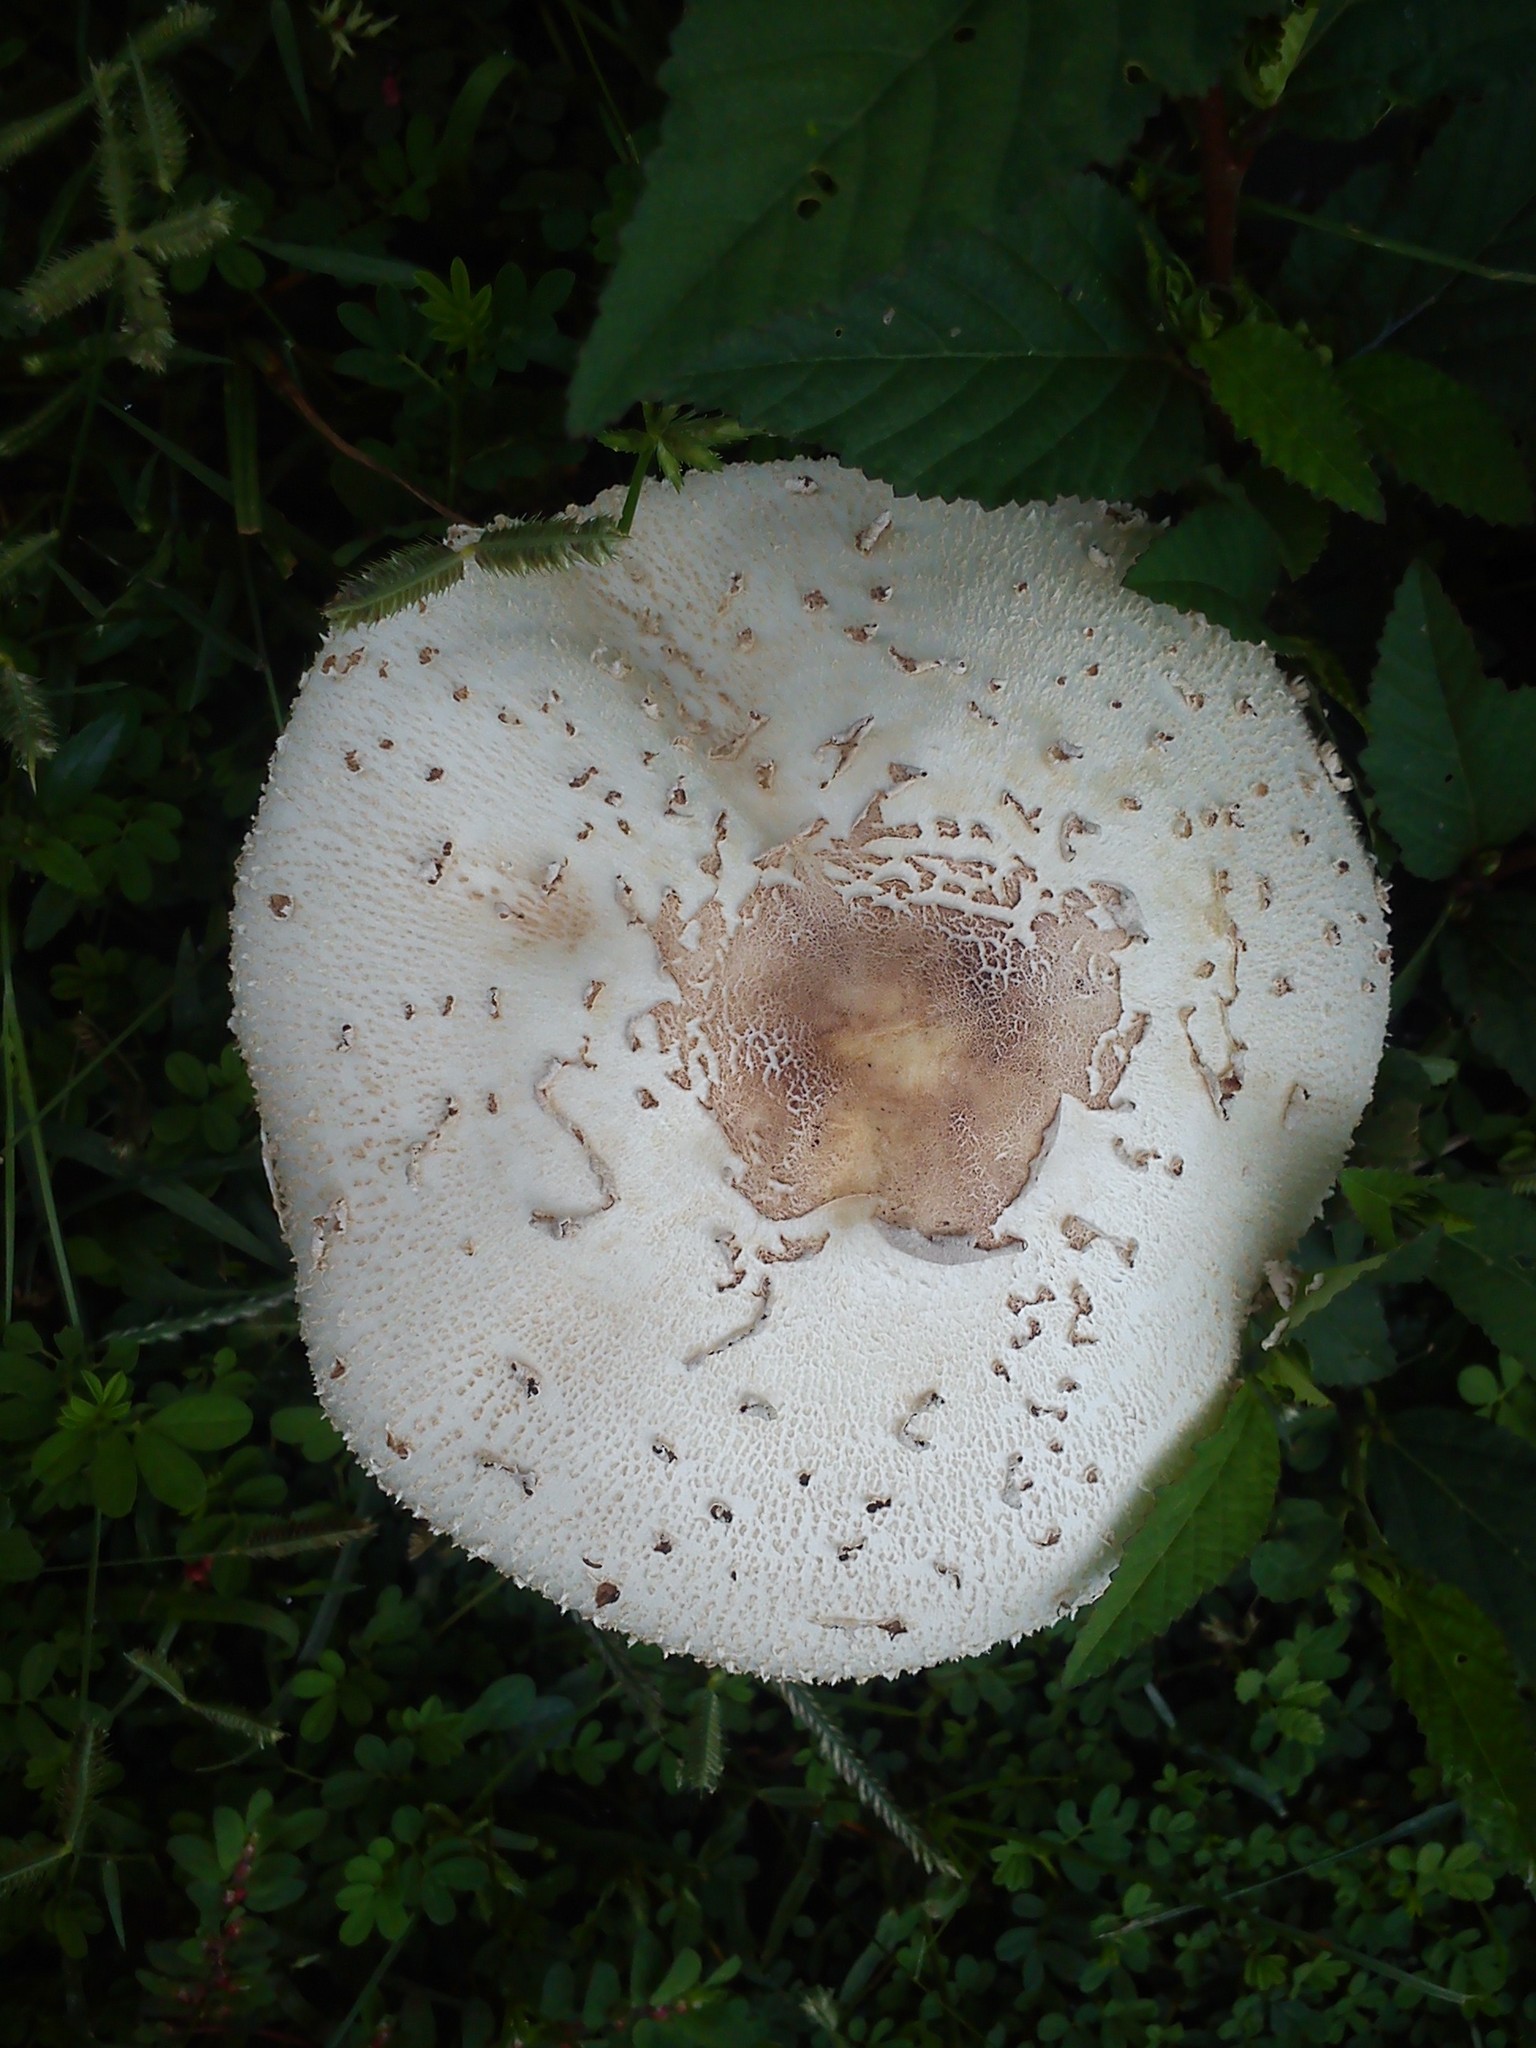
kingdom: Fungi
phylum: Basidiomycota
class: Agaricomycetes
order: Agaricales
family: Agaricaceae
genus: Chlorophyllum
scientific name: Chlorophyllum molybdites
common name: False parasol
